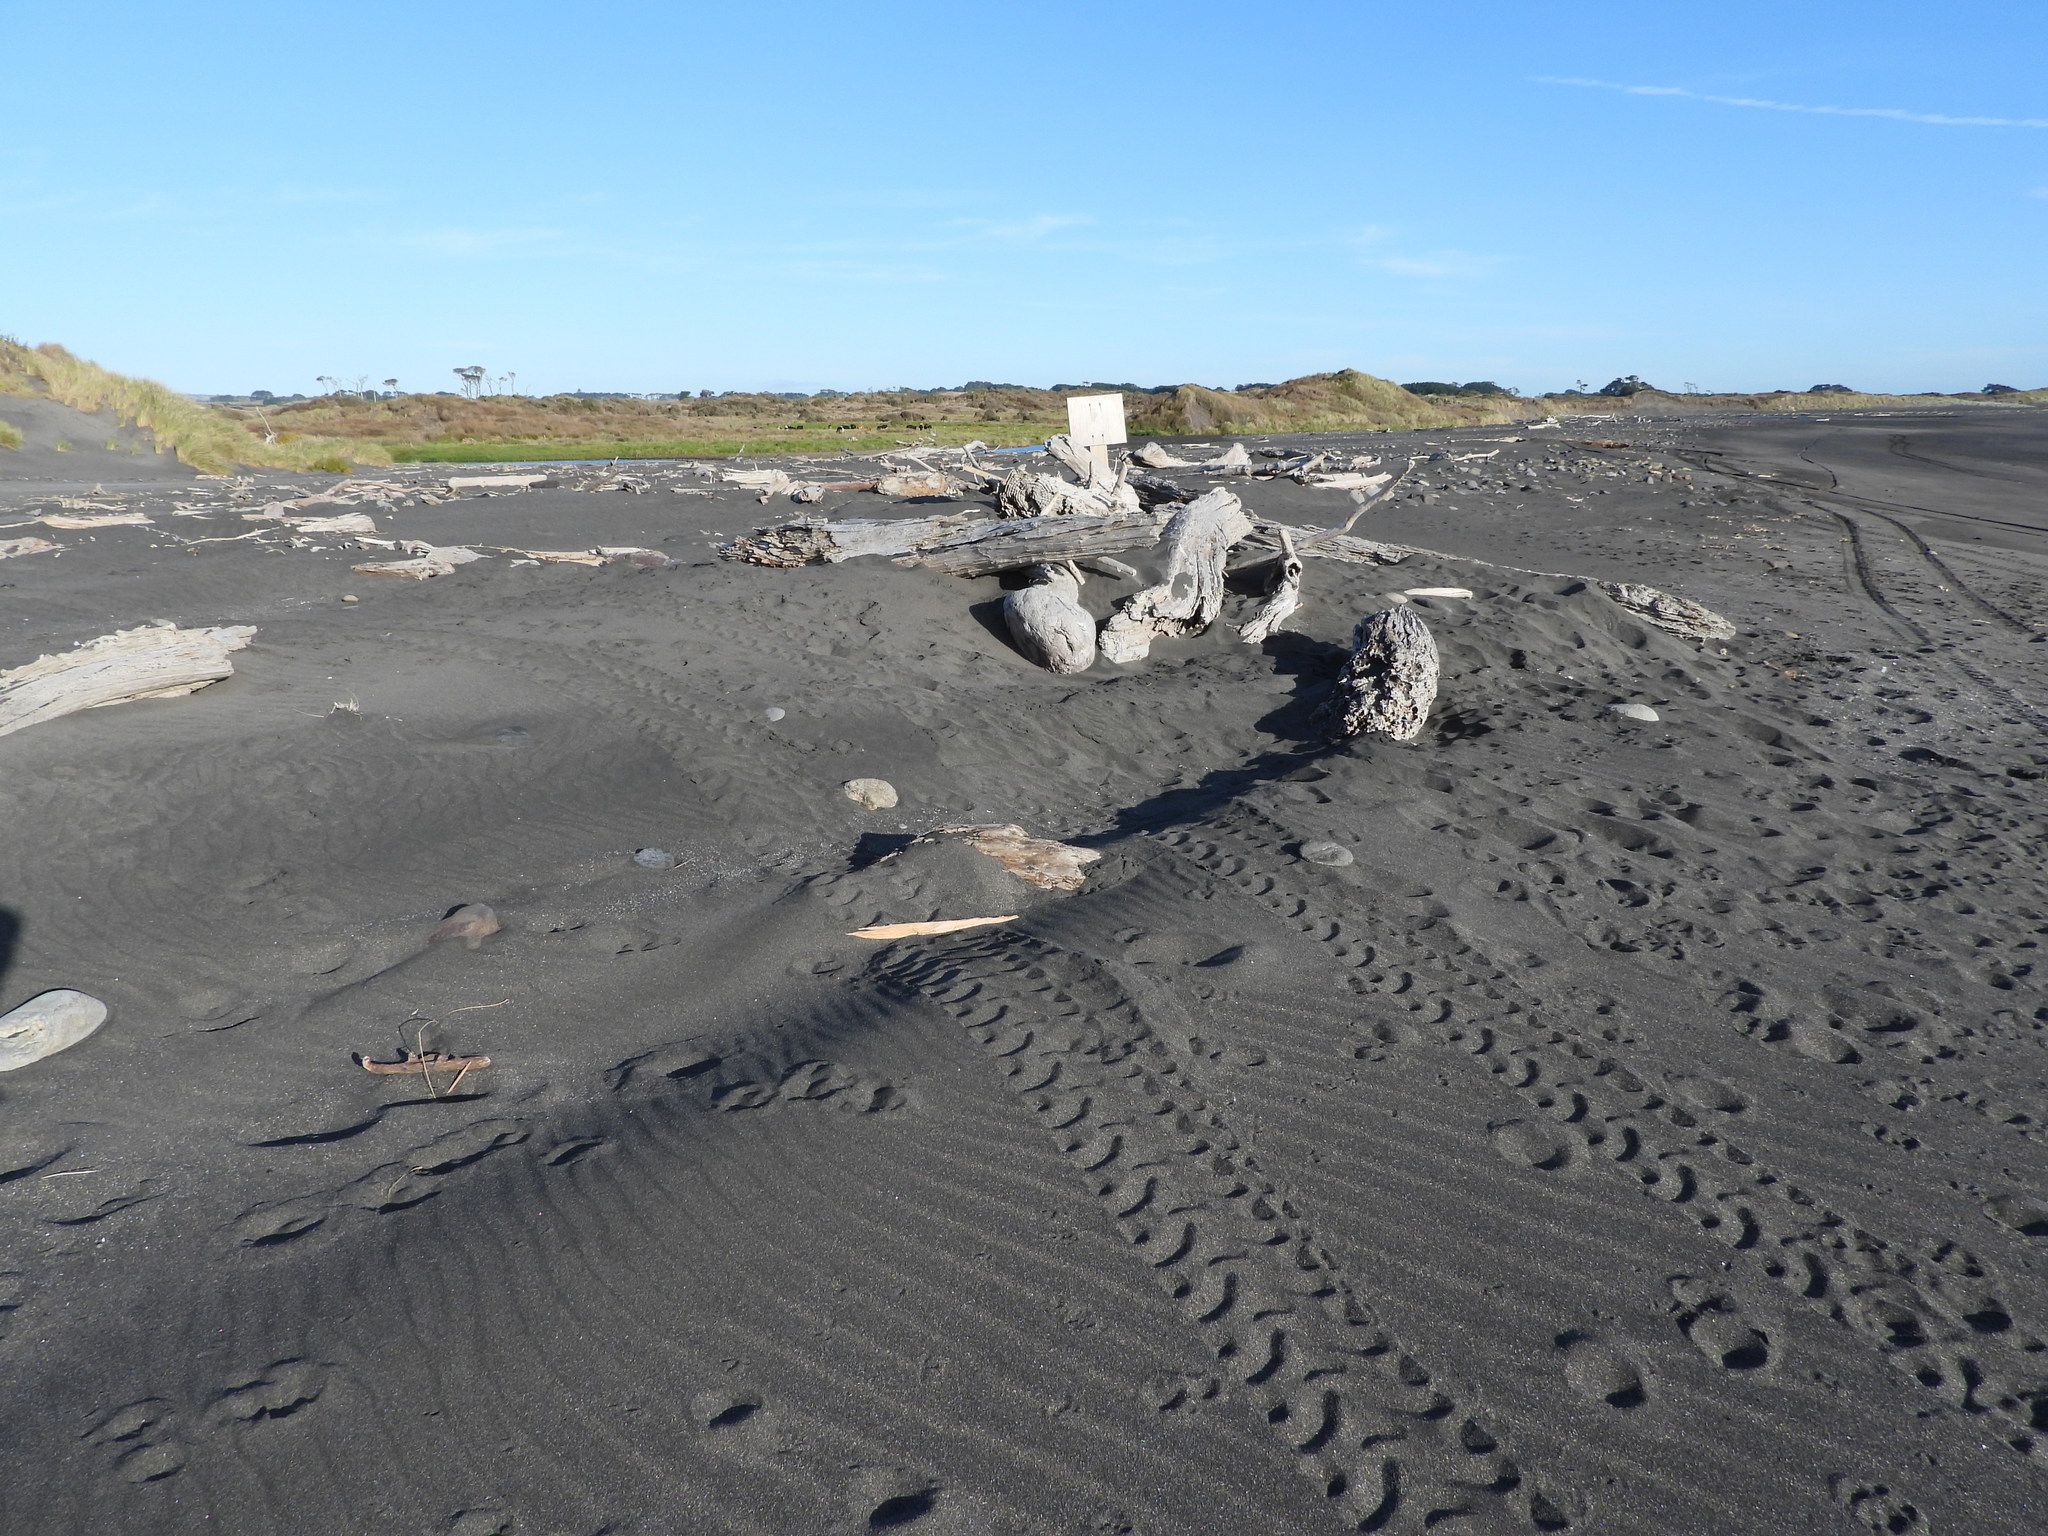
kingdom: Animalia
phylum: Chordata
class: Mammalia
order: Carnivora
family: Felidae
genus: Felis
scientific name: Felis catus
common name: Domestic cat
